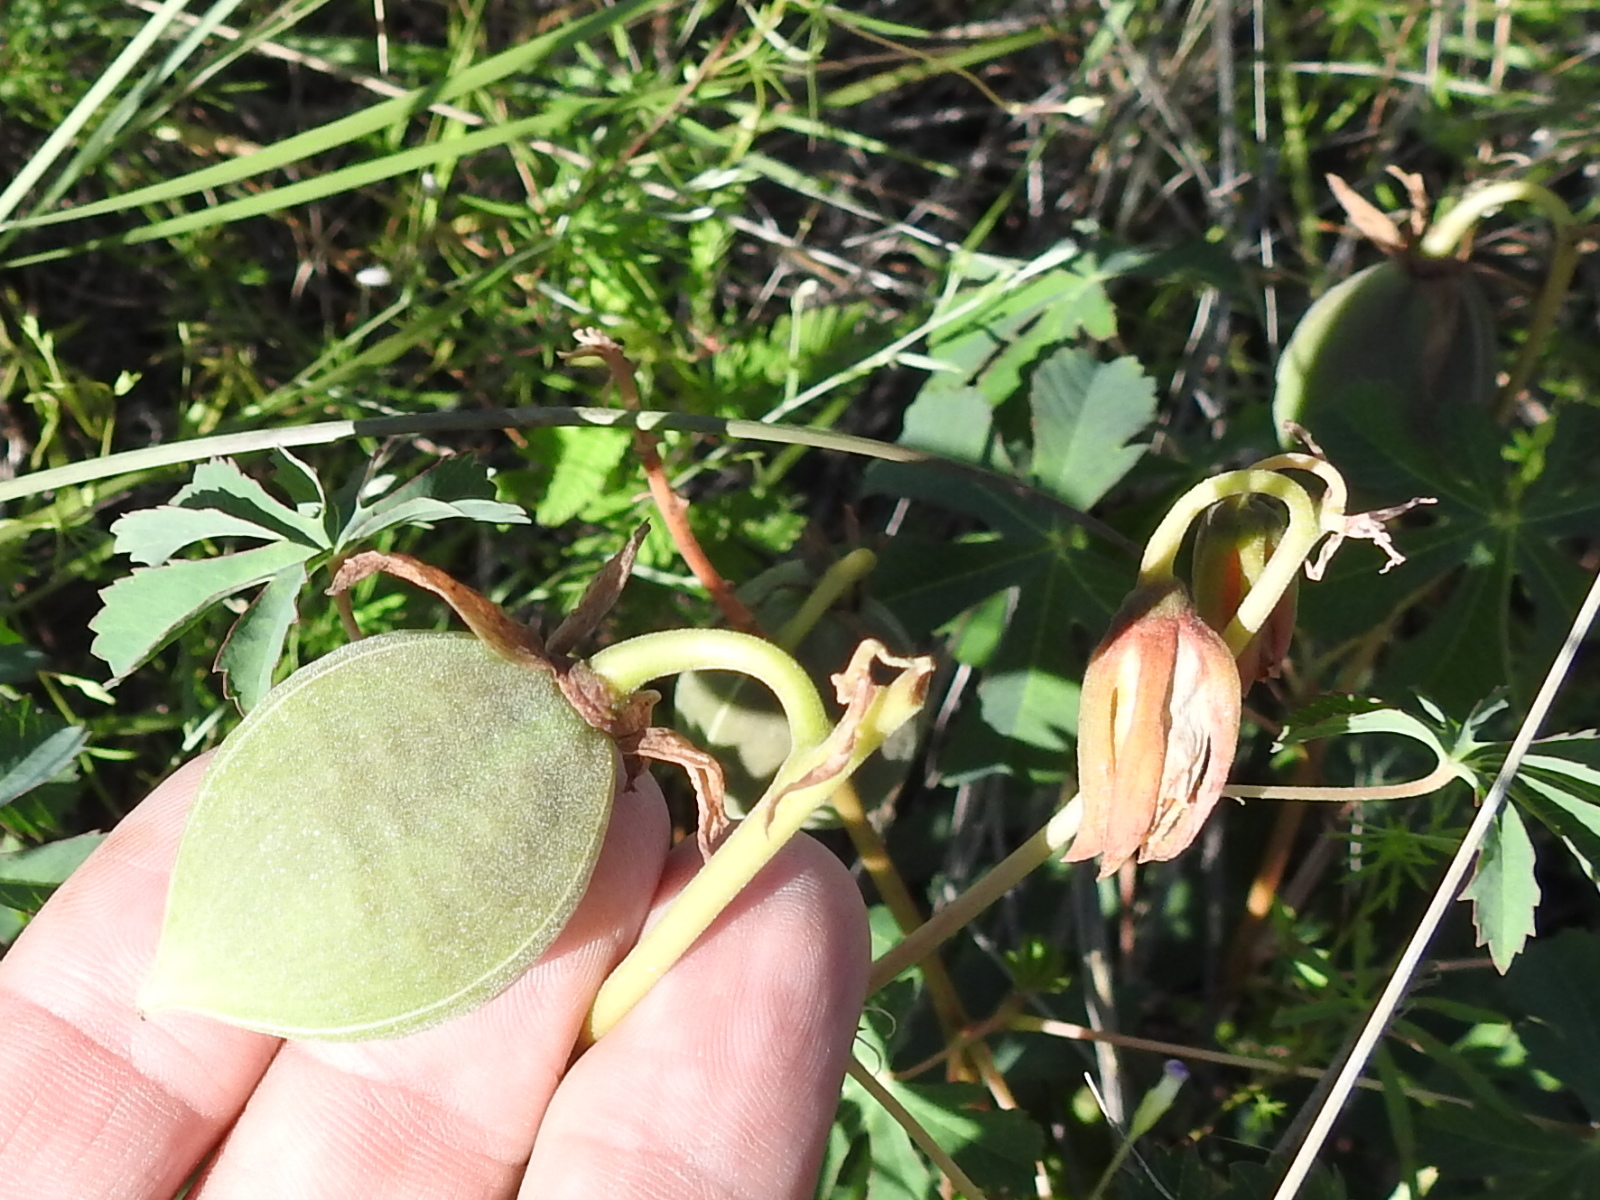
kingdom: Plantae
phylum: Tracheophyta
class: Magnoliopsida
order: Malpighiales
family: Euphorbiaceae
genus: Jatropha
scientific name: Jatropha macrorhiza
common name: Ragged nettlespurge
